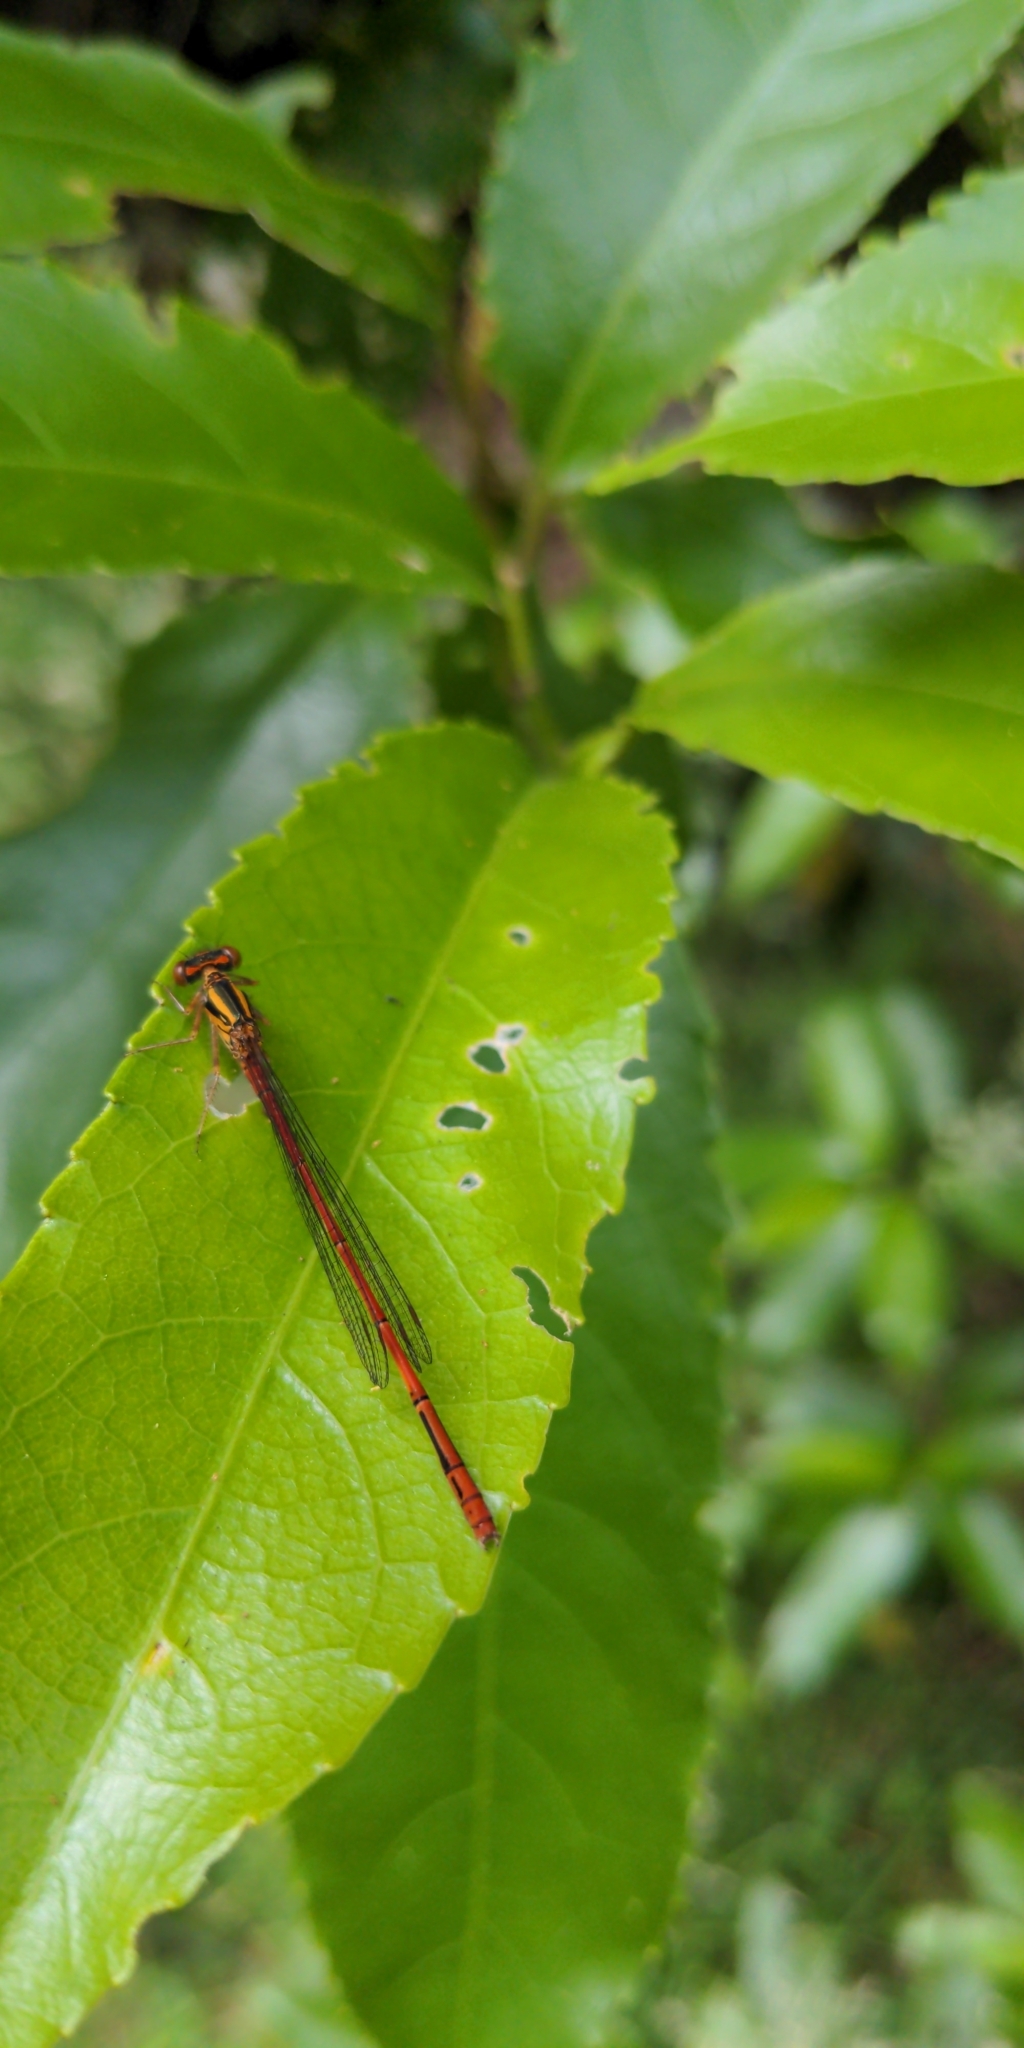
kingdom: Animalia
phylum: Arthropoda
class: Insecta
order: Odonata
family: Coenagrionidae
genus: Xanthocnemis
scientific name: Xanthocnemis zealandica
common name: Common redcoat damselfly
